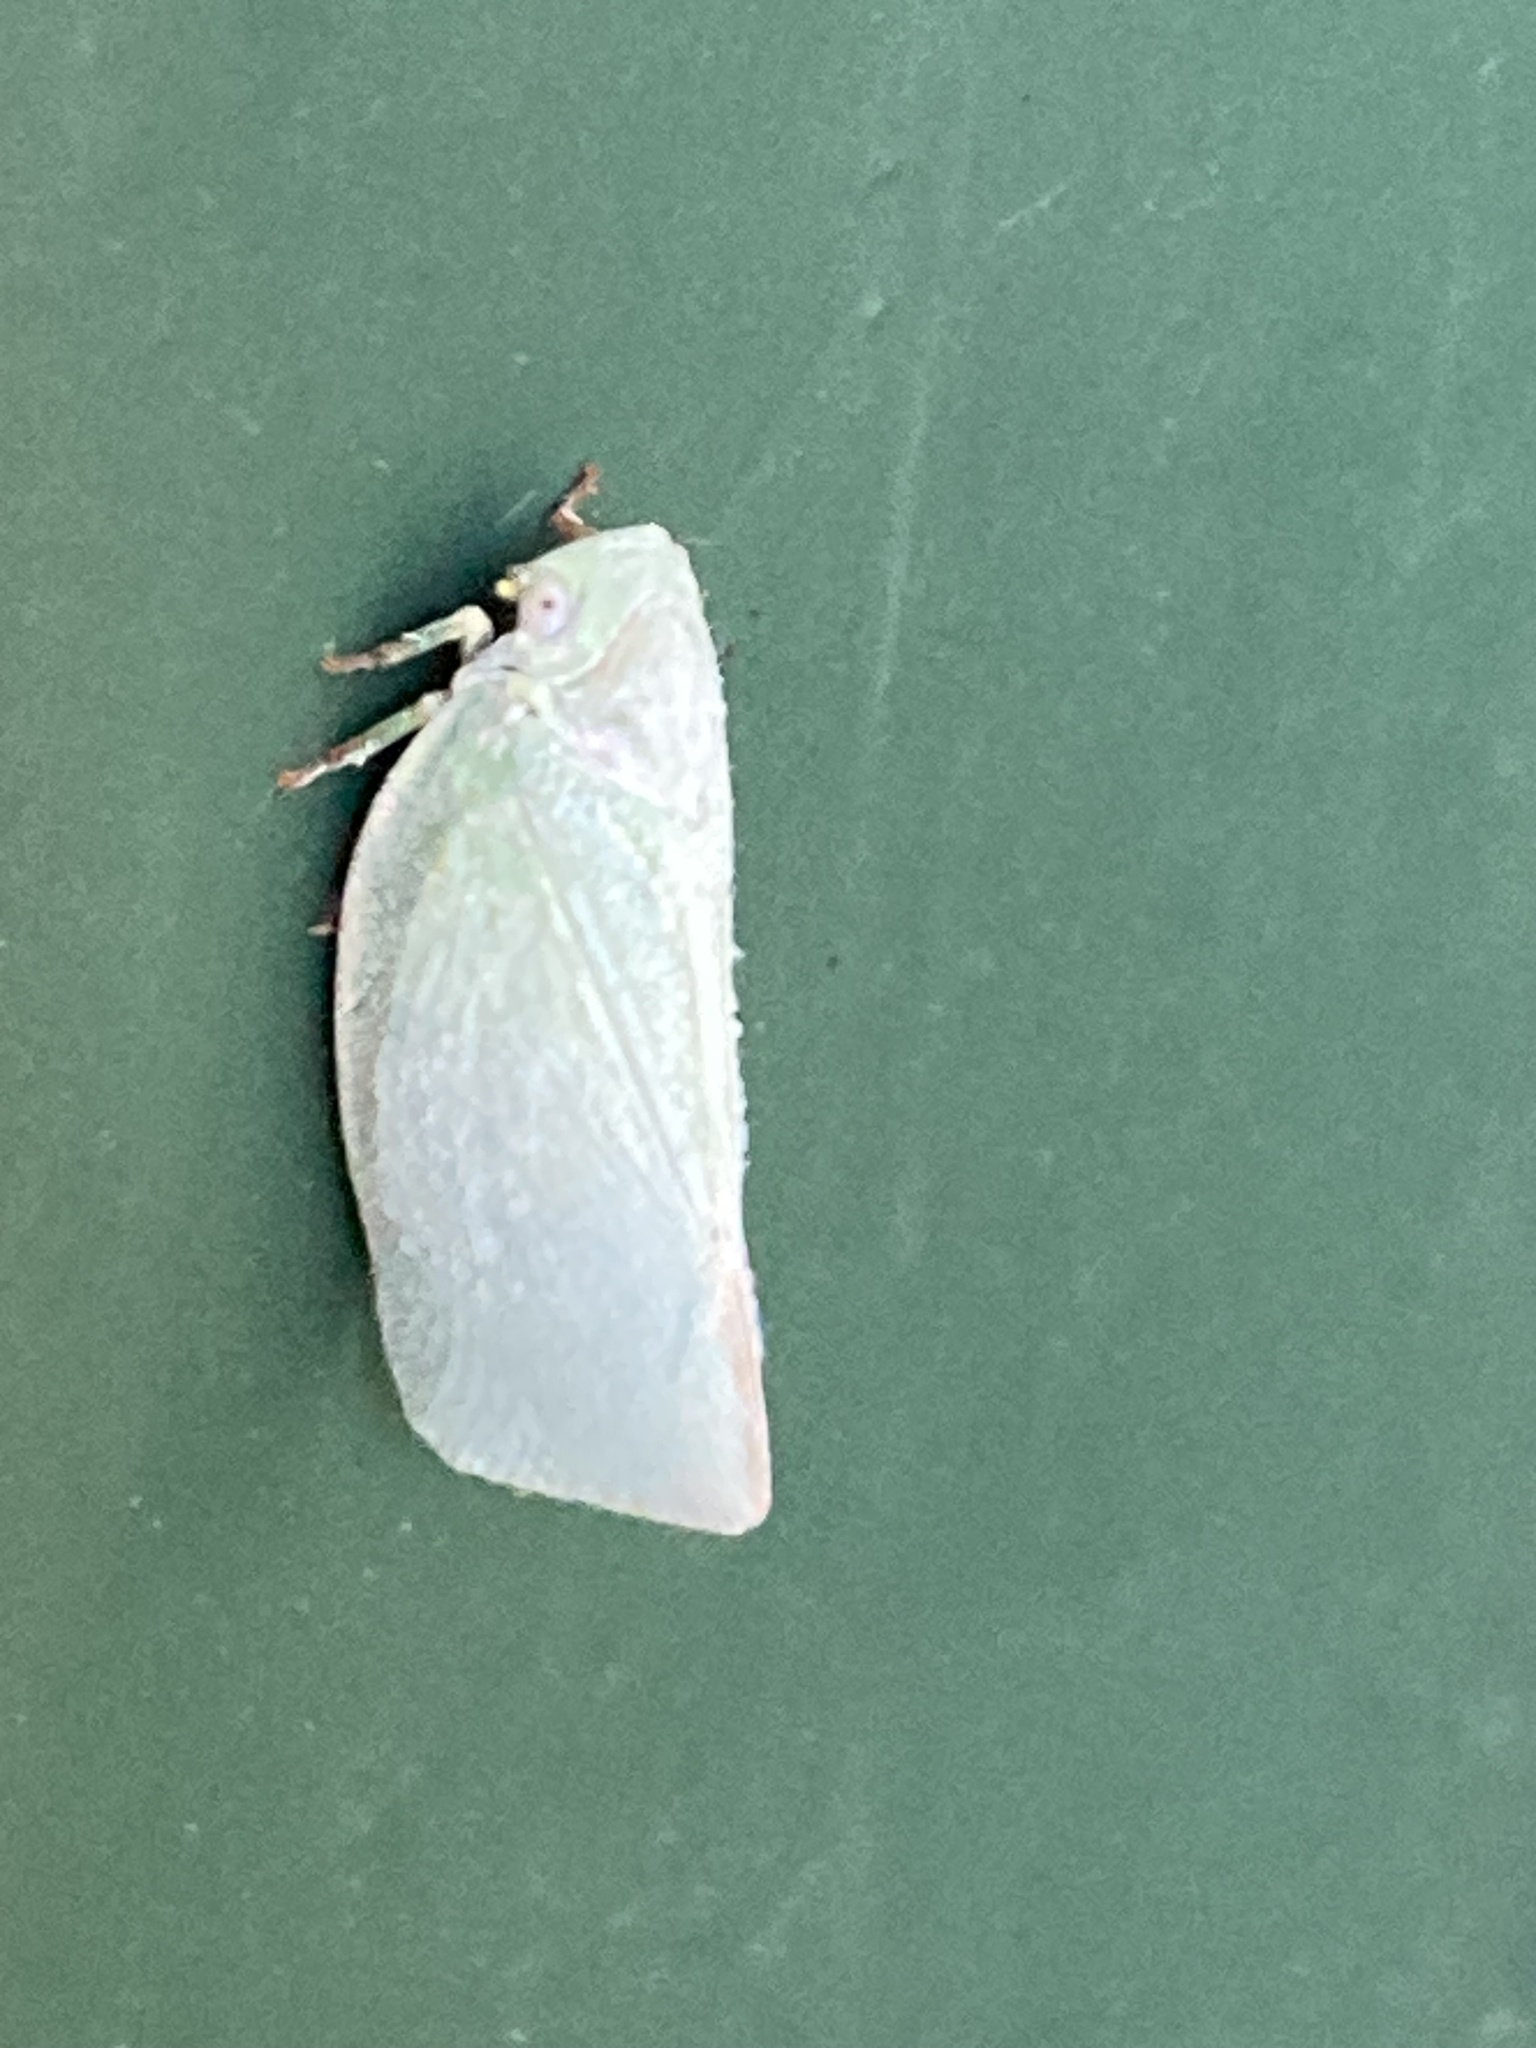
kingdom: Animalia
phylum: Arthropoda
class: Insecta
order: Hemiptera
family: Flatidae
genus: Flatormenis
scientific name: Flatormenis proxima
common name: Northern flatid planthopper
